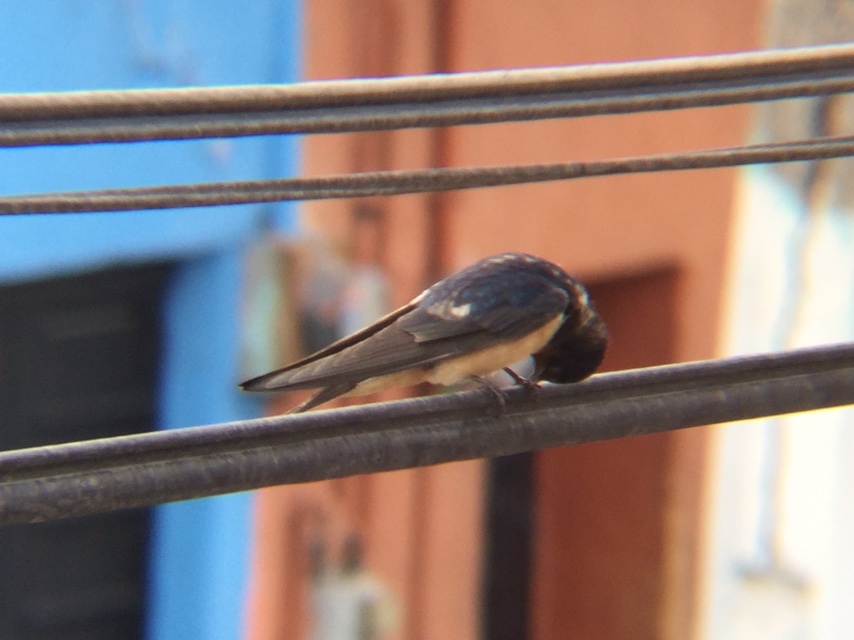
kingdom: Animalia
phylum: Chordata
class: Aves
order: Passeriformes
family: Hirundinidae
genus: Hirundo
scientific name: Hirundo rustica
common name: Barn swallow
